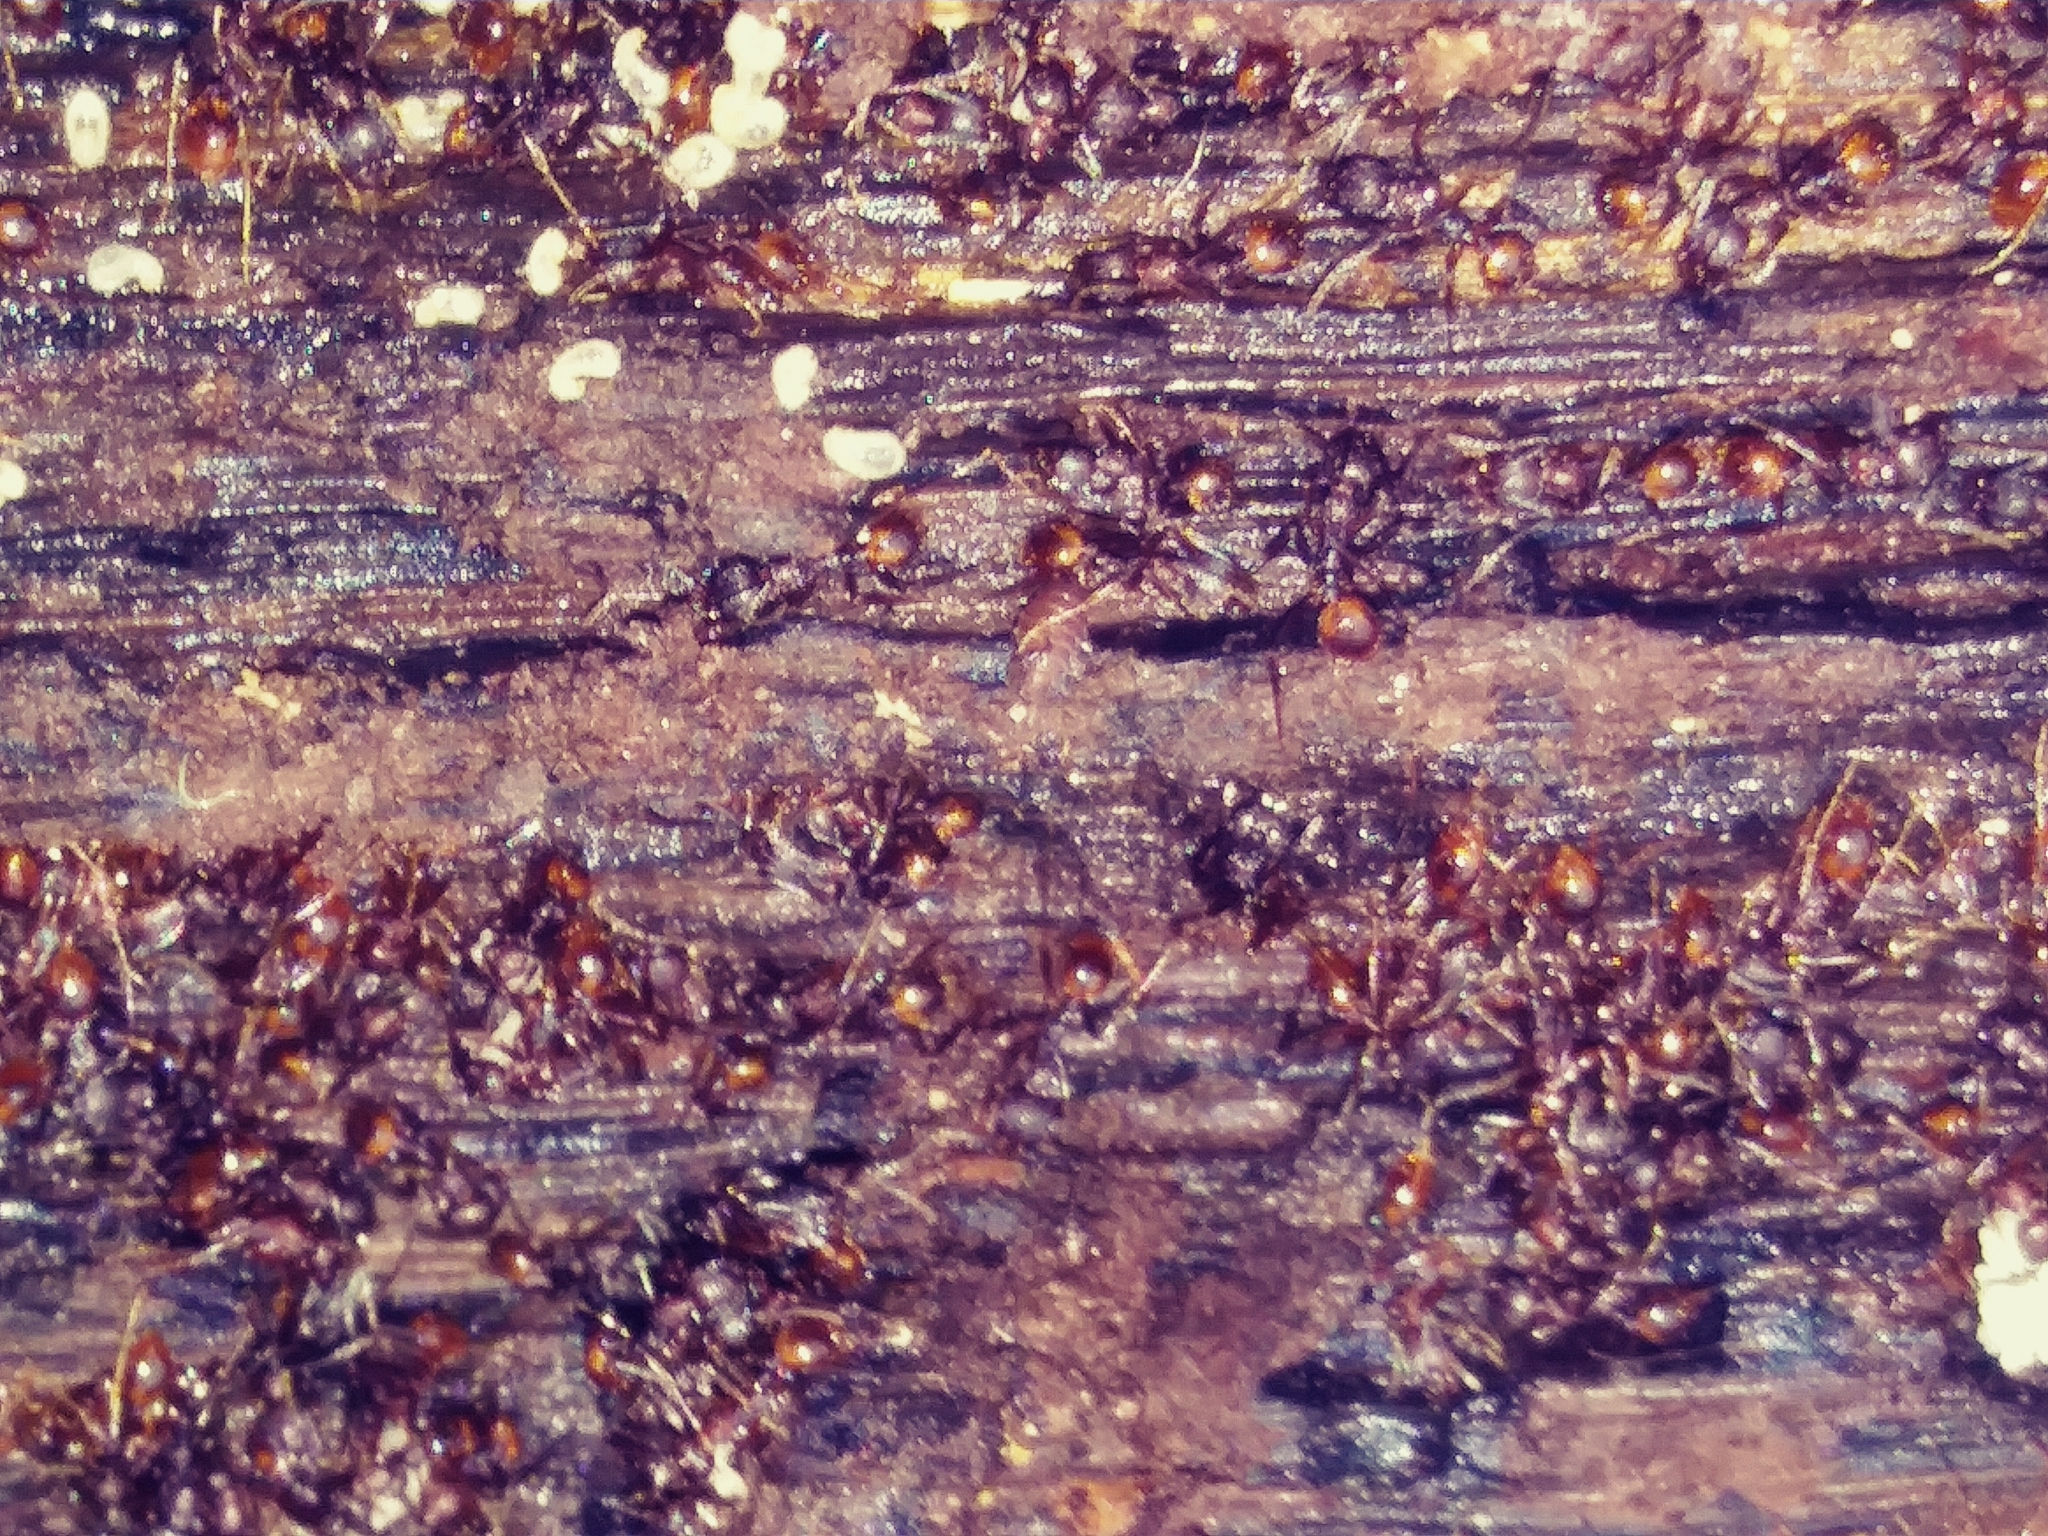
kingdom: Animalia
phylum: Arthropoda
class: Insecta
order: Hymenoptera
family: Formicidae
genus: Aphaenogaster
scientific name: Aphaenogaster fulva
